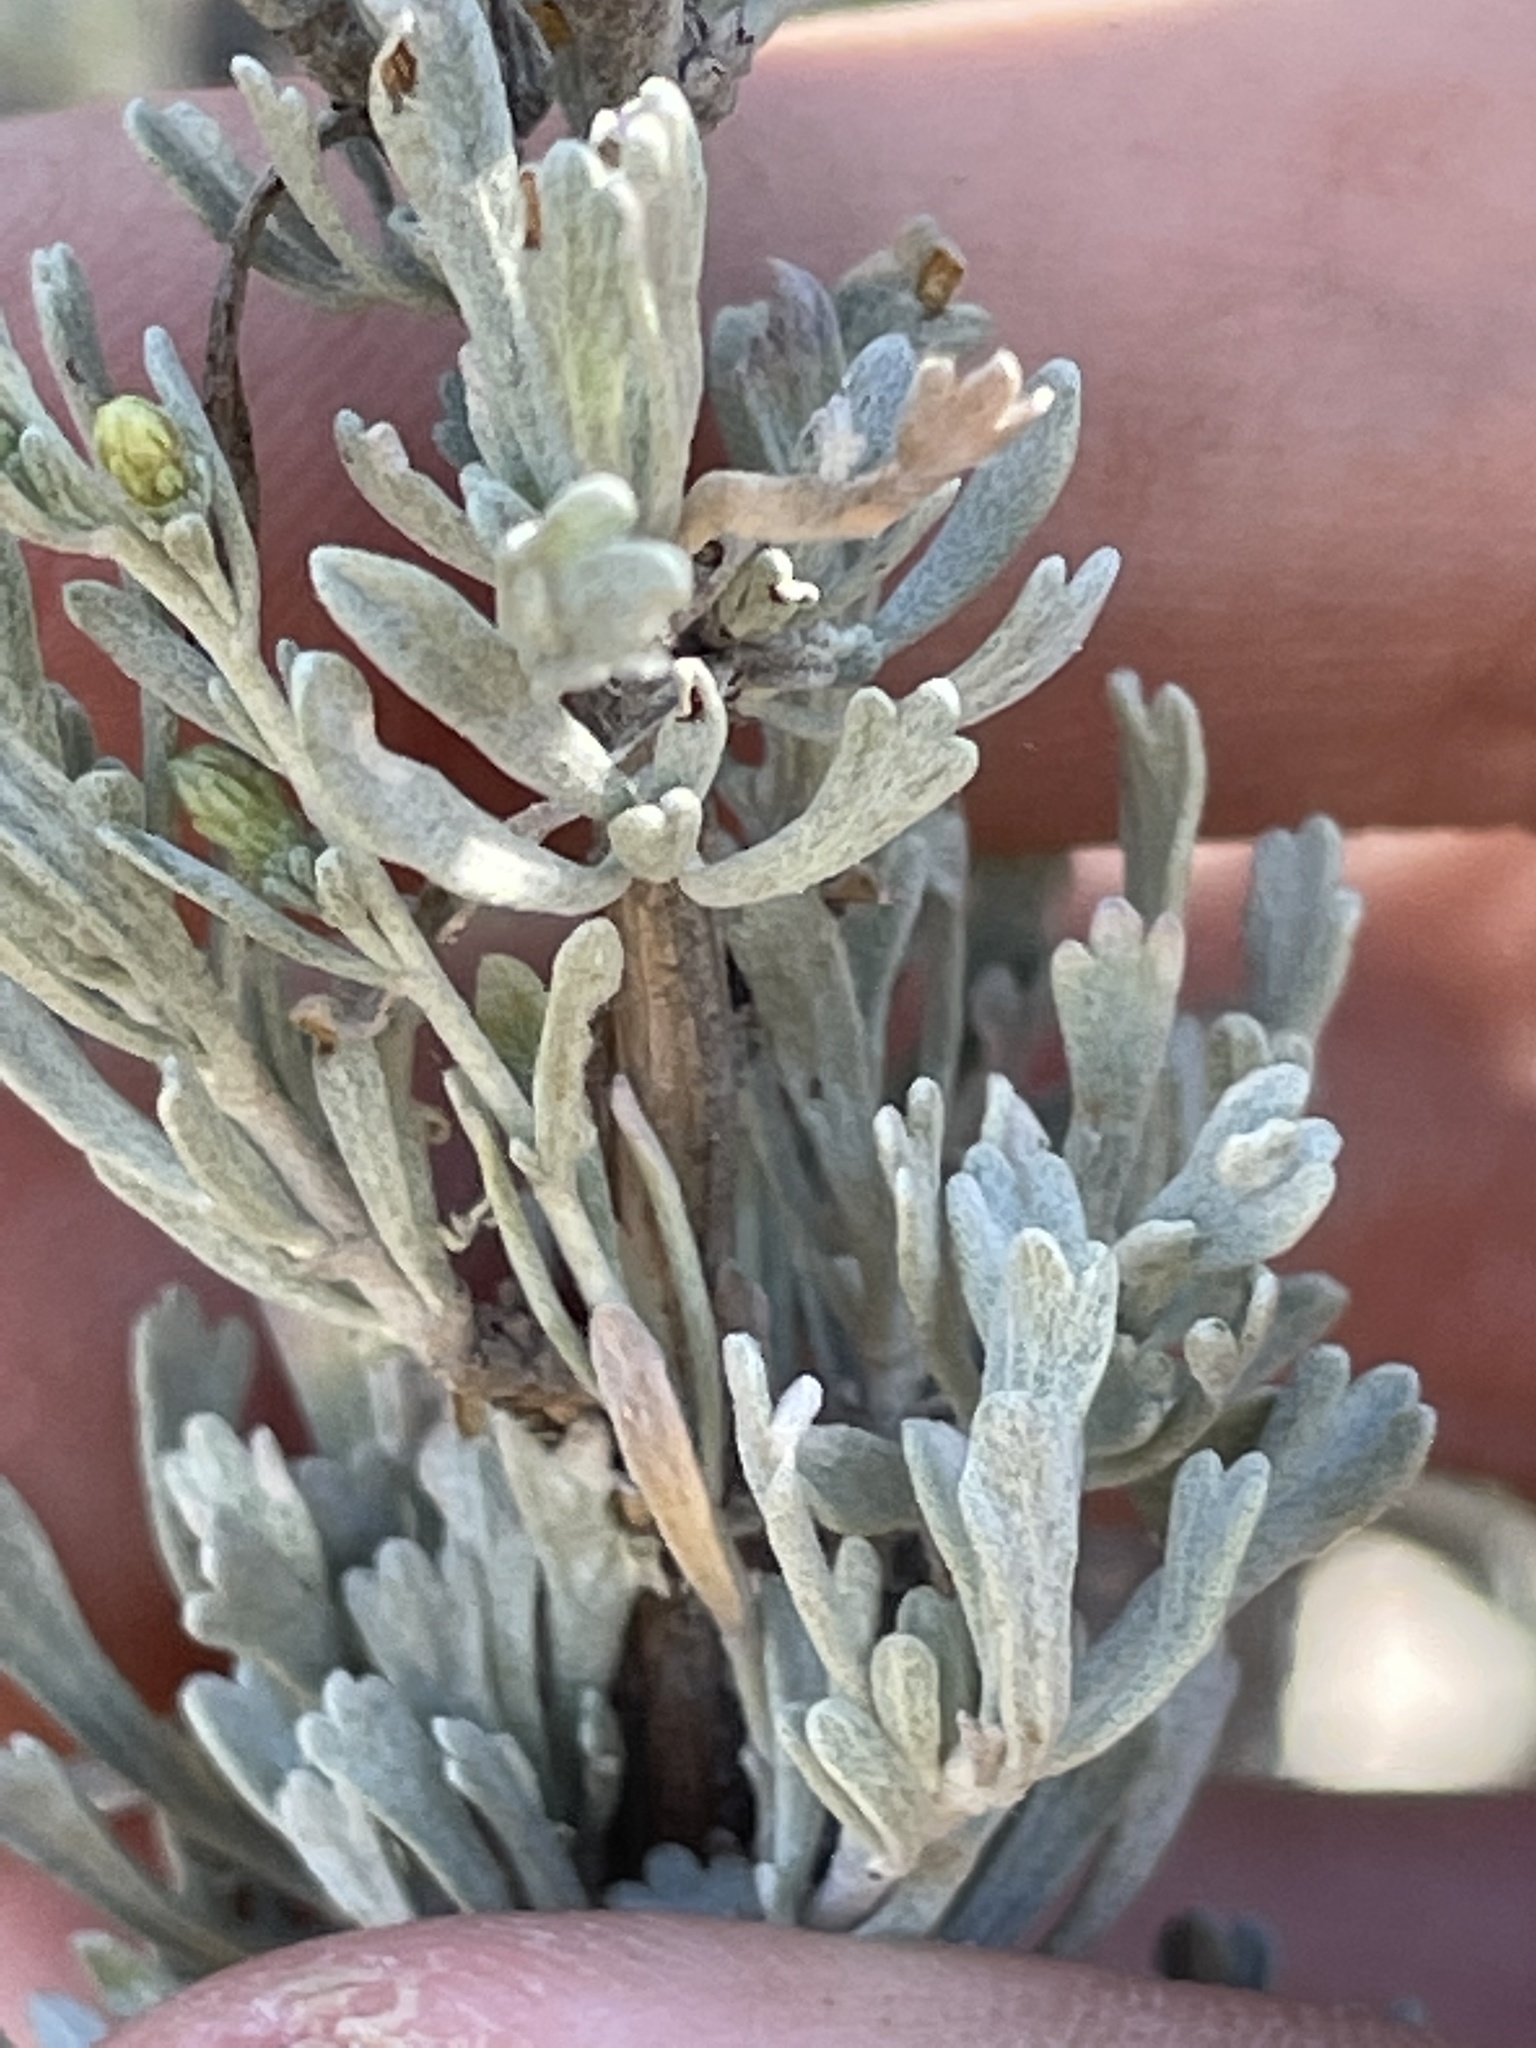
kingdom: Plantae
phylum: Tracheophyta
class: Magnoliopsida
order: Asterales
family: Asteraceae
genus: Artemisia
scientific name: Artemisia tridentata
